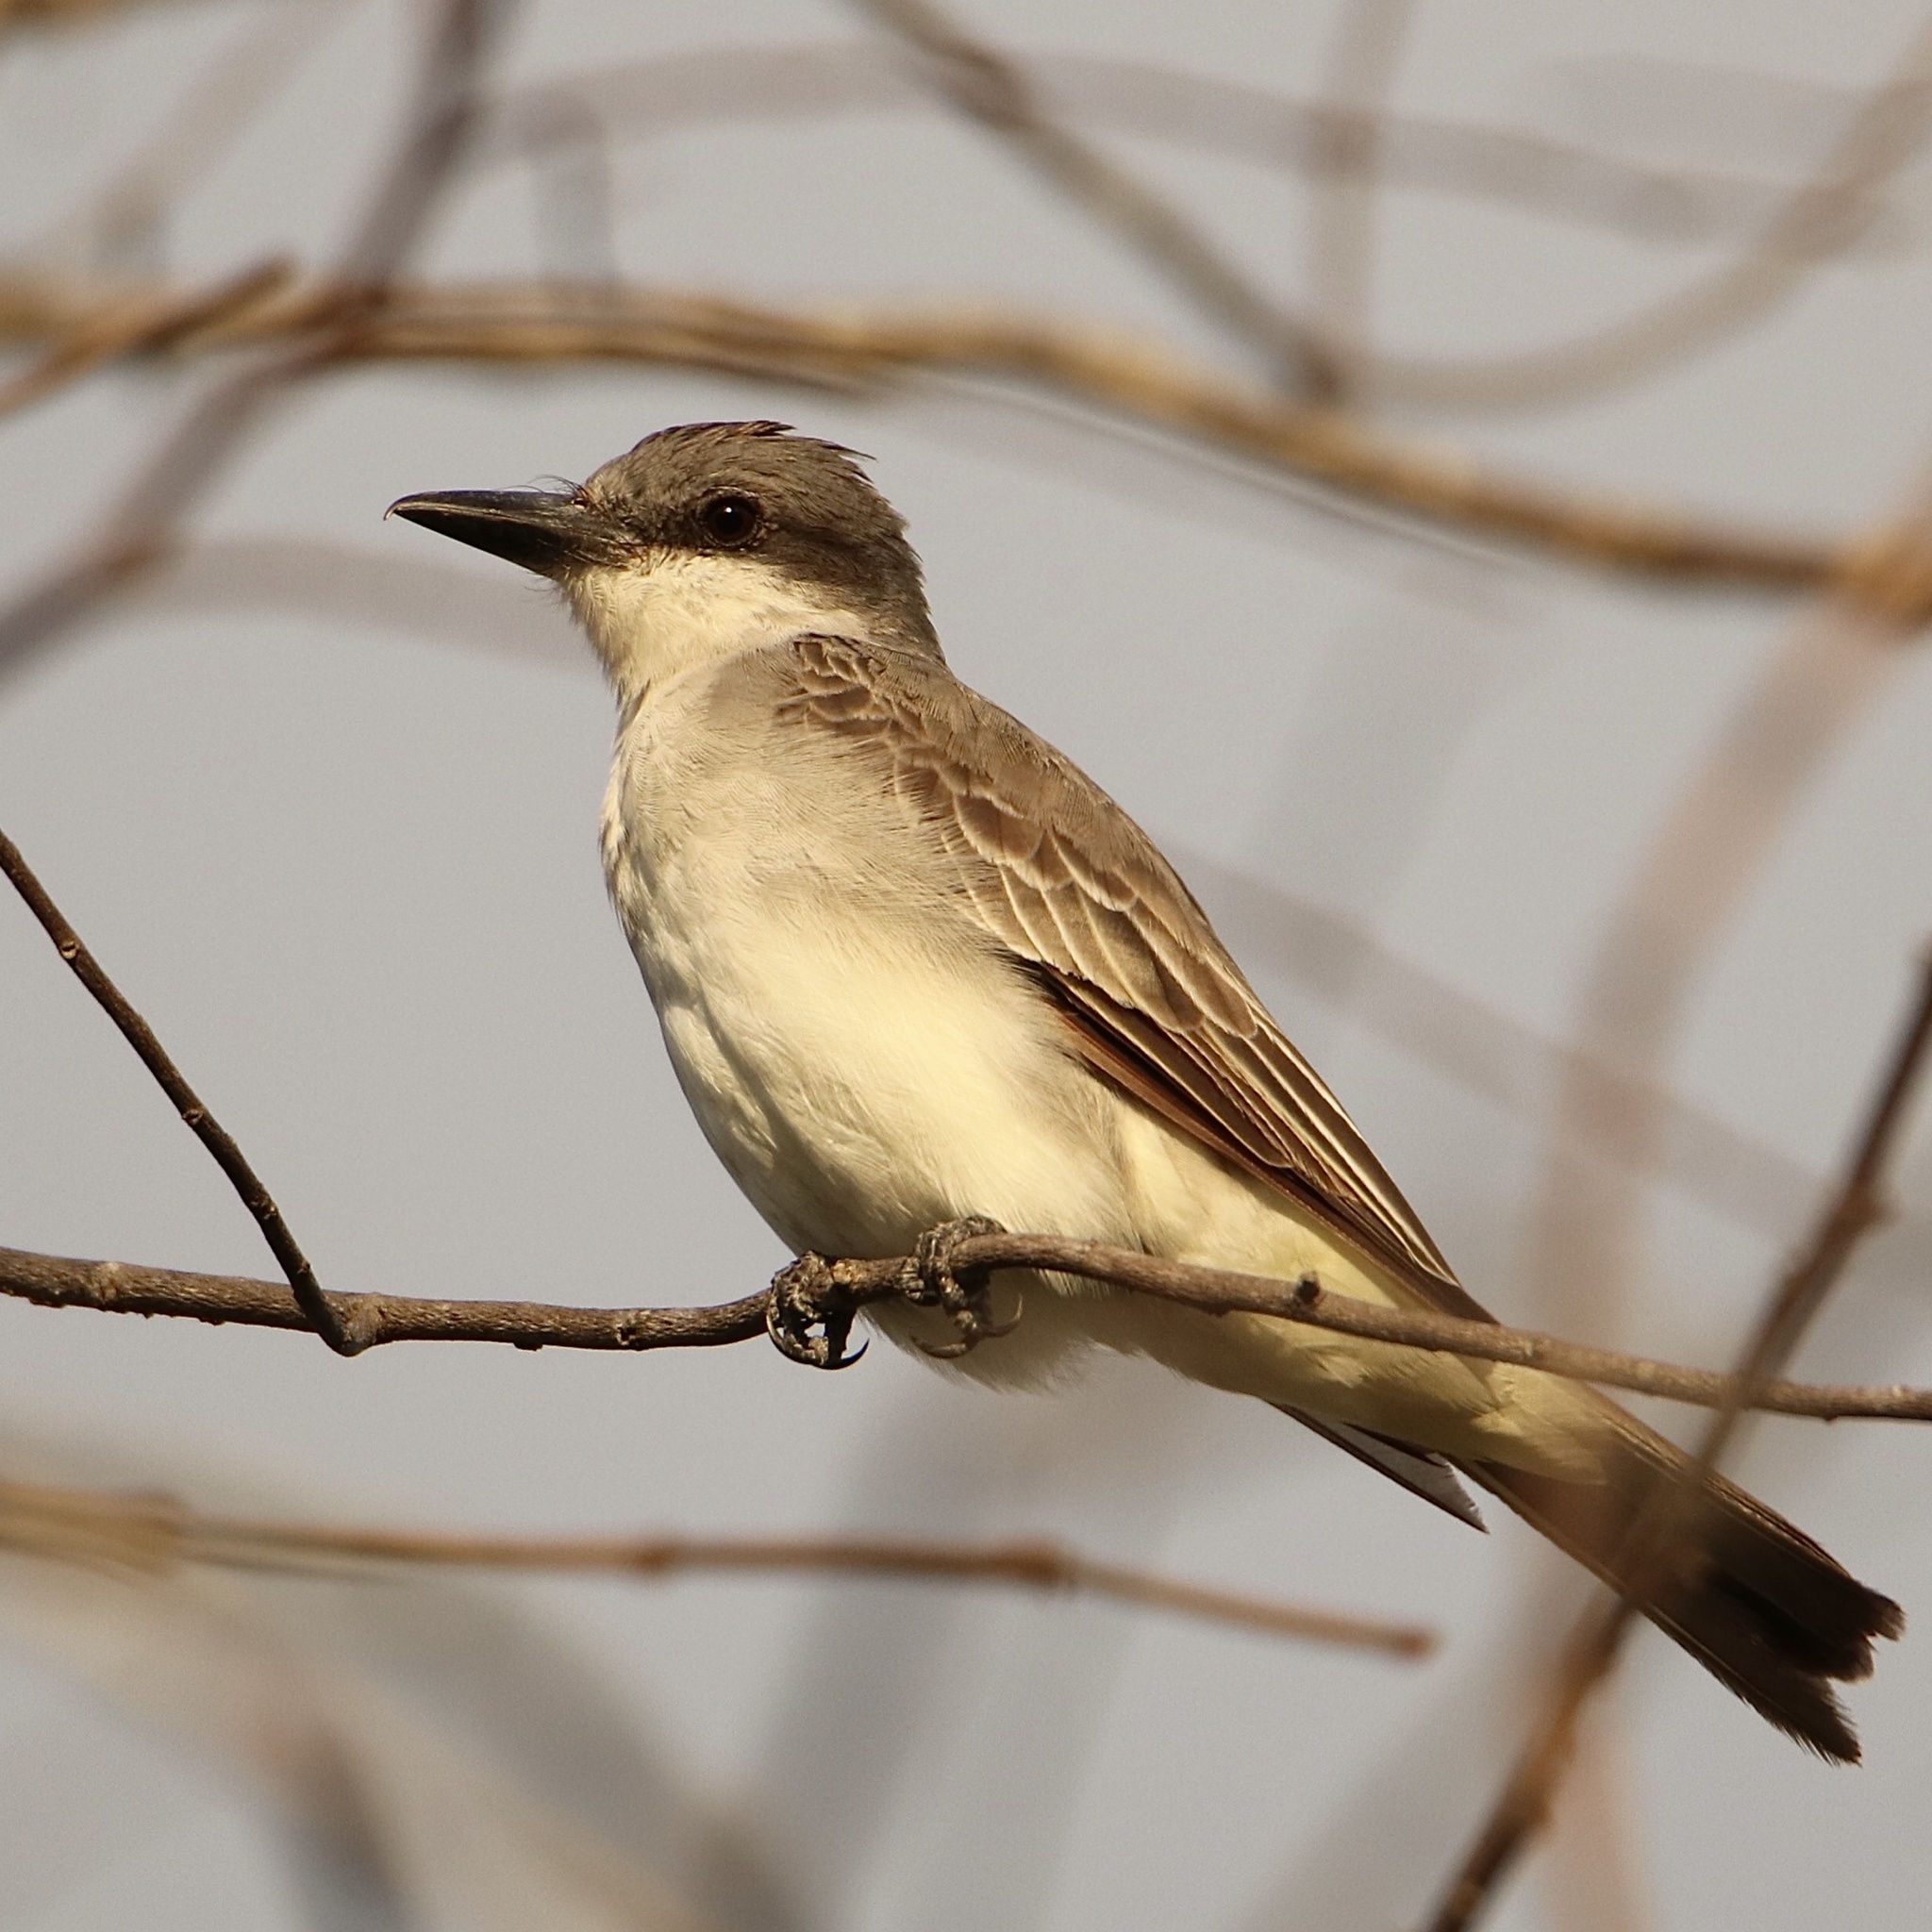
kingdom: Animalia
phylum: Chordata
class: Aves
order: Passeriformes
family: Tyrannidae
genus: Tyrannus
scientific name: Tyrannus dominicensis
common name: Gray kingbird
